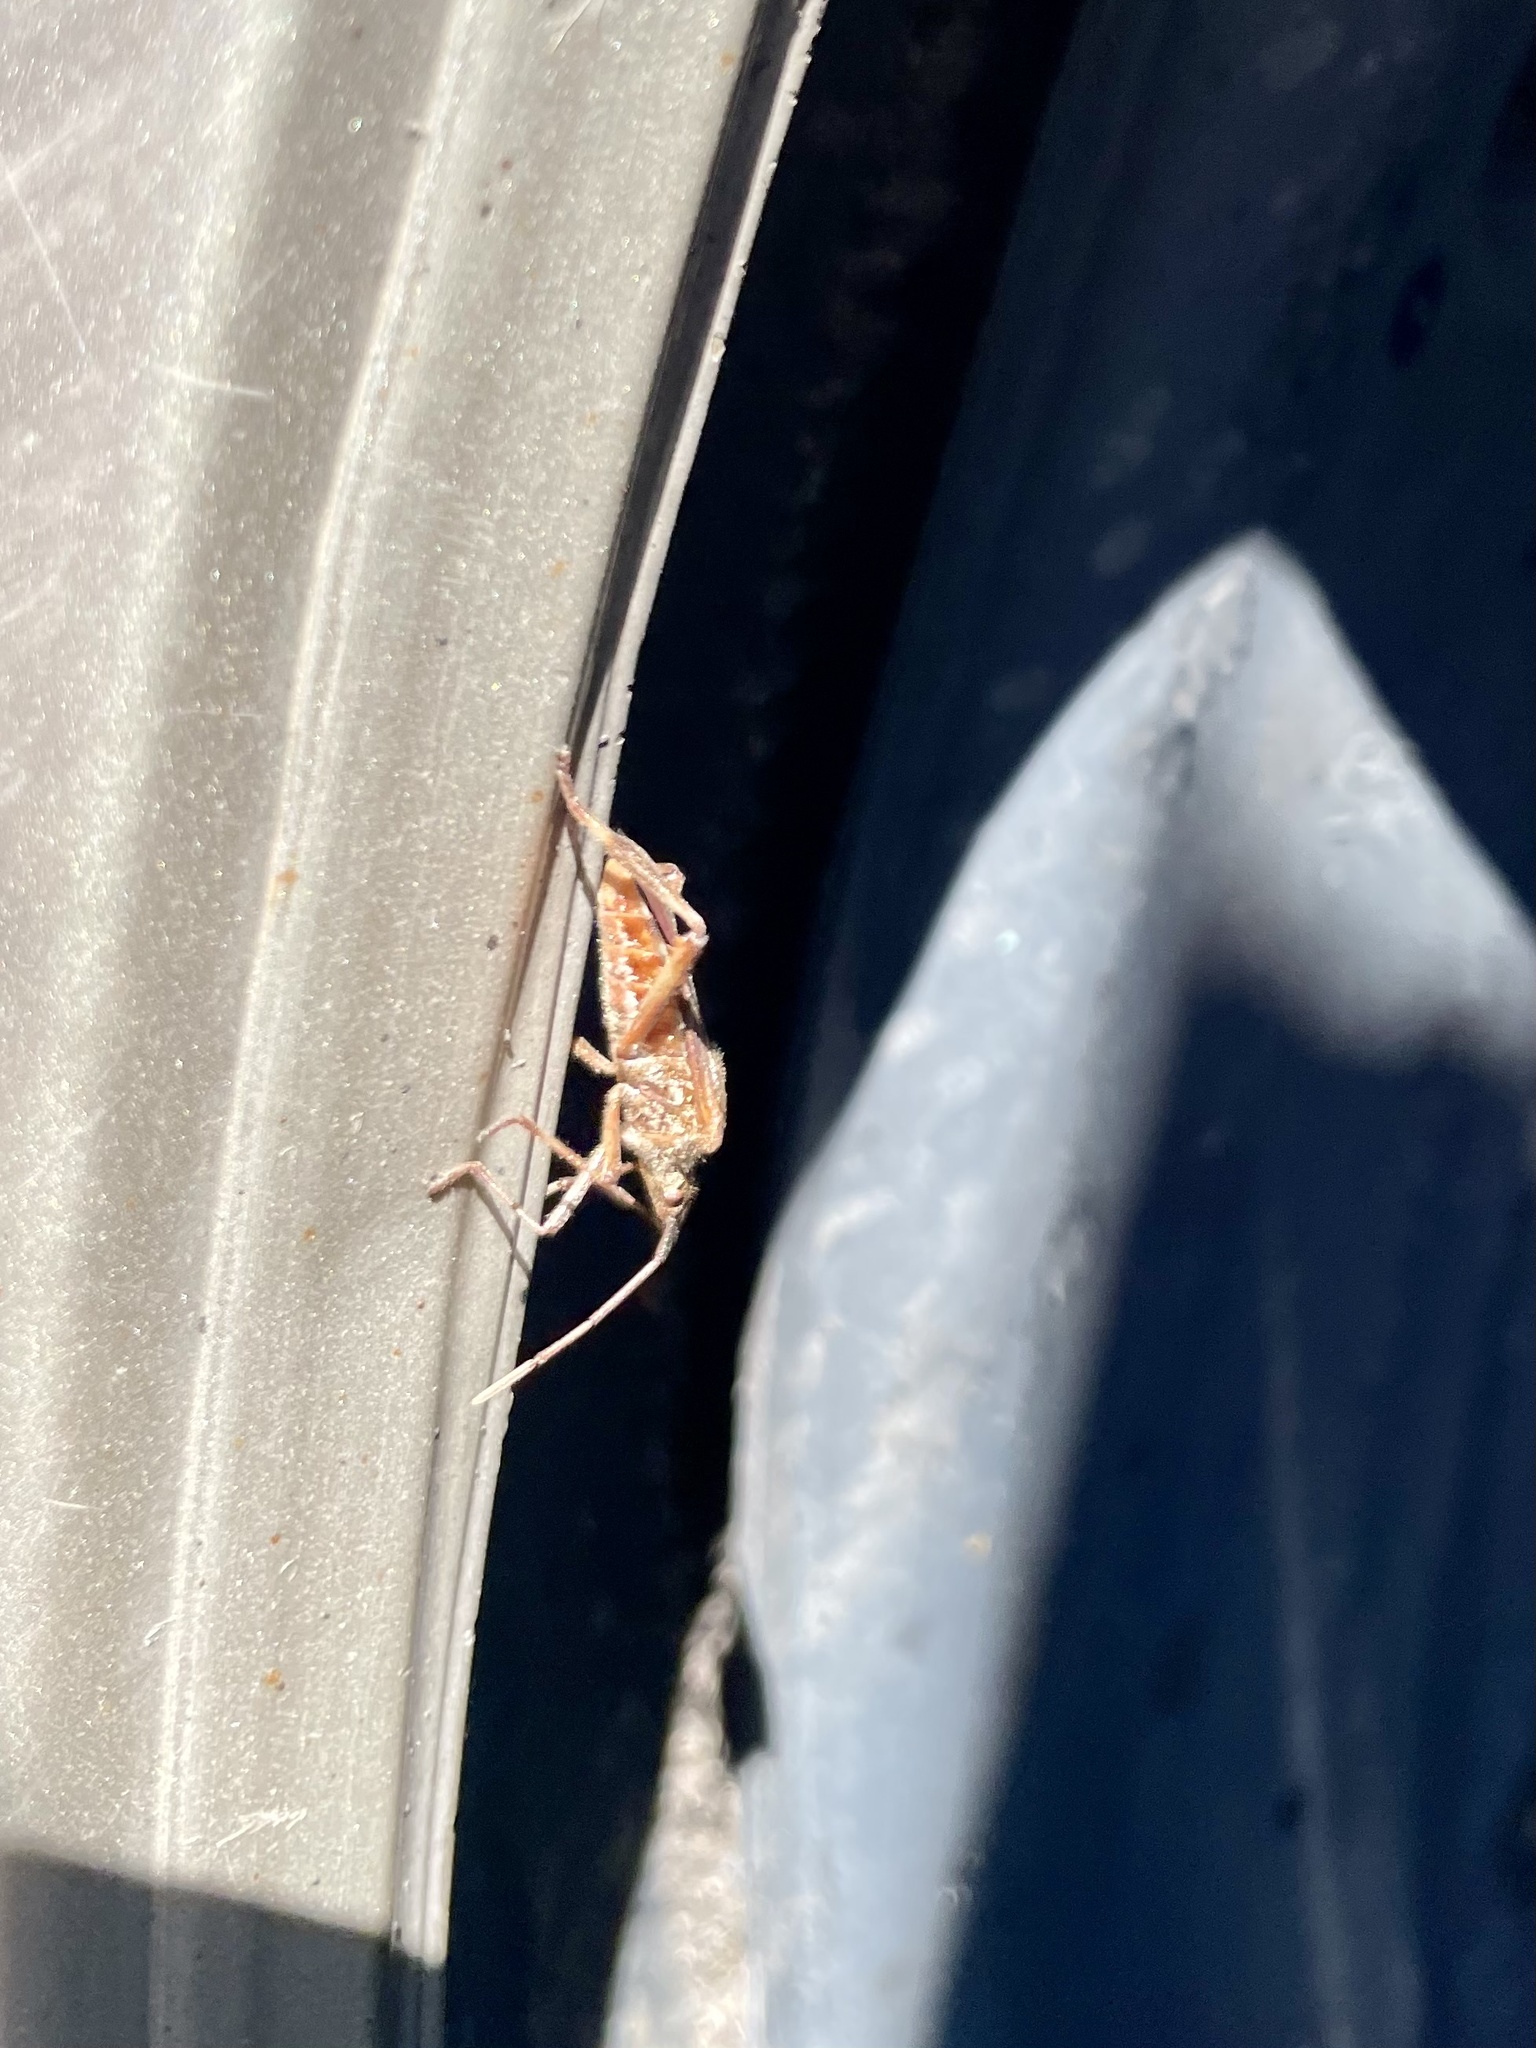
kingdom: Animalia
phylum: Arthropoda
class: Insecta
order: Hemiptera
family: Coreidae
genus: Leptoglossus
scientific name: Leptoglossus occidentalis
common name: Western conifer-seed bug
